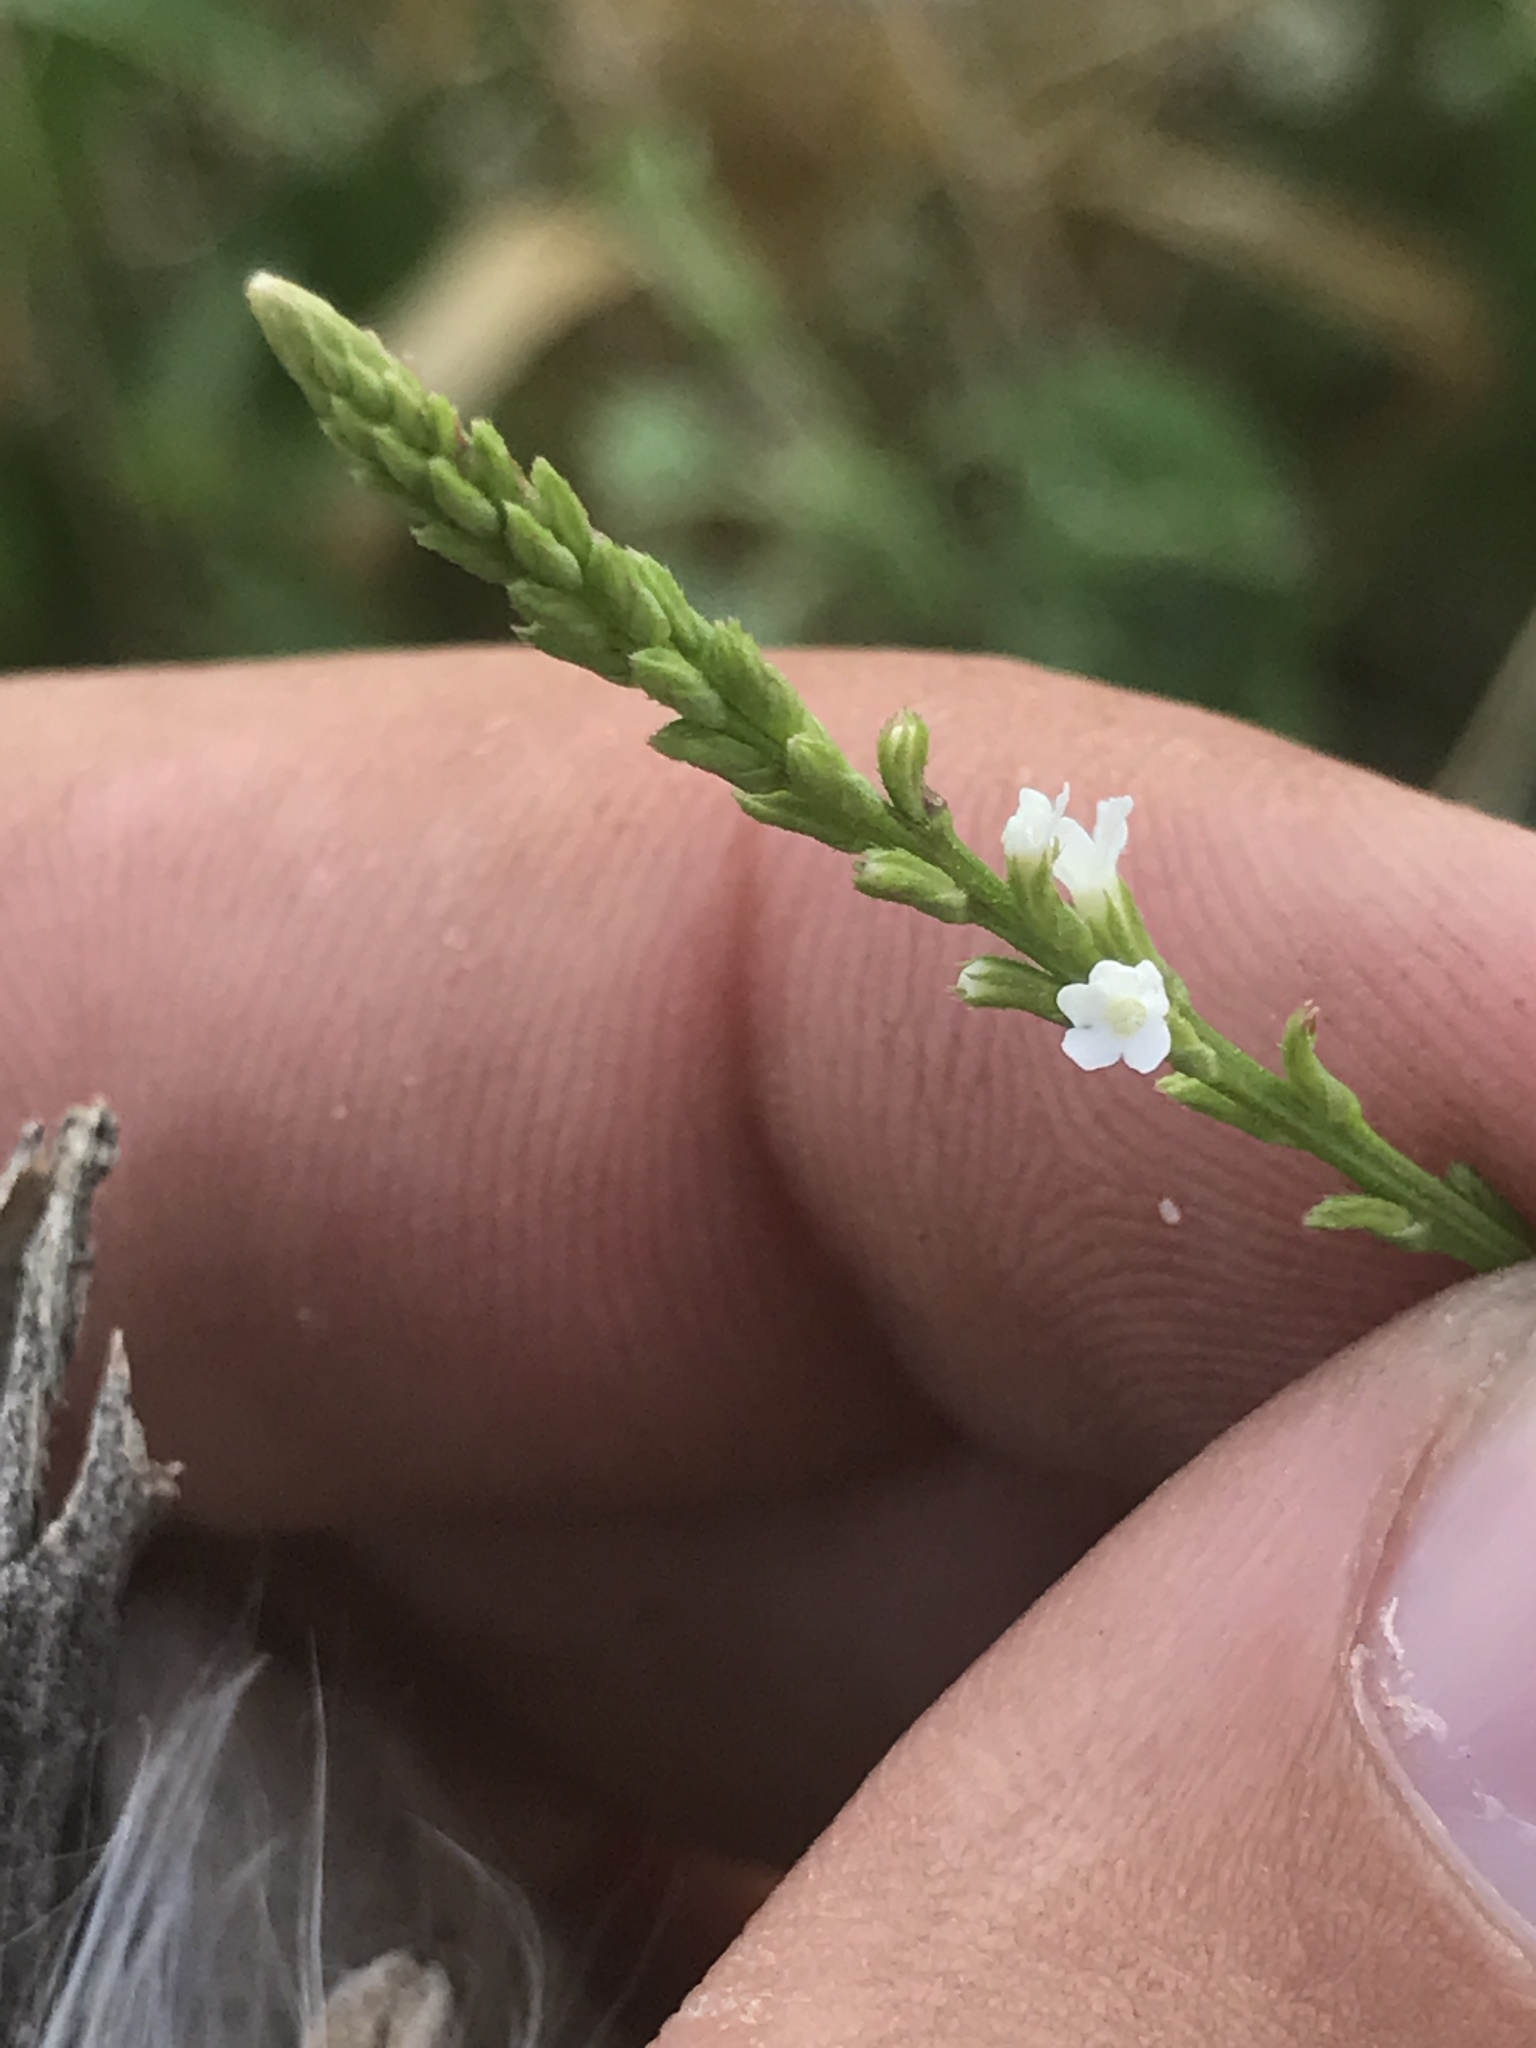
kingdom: Plantae
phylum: Tracheophyta
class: Magnoliopsida
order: Lamiales
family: Verbenaceae
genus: Verbena
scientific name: Verbena urticifolia
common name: Nettle-leaved vervain
